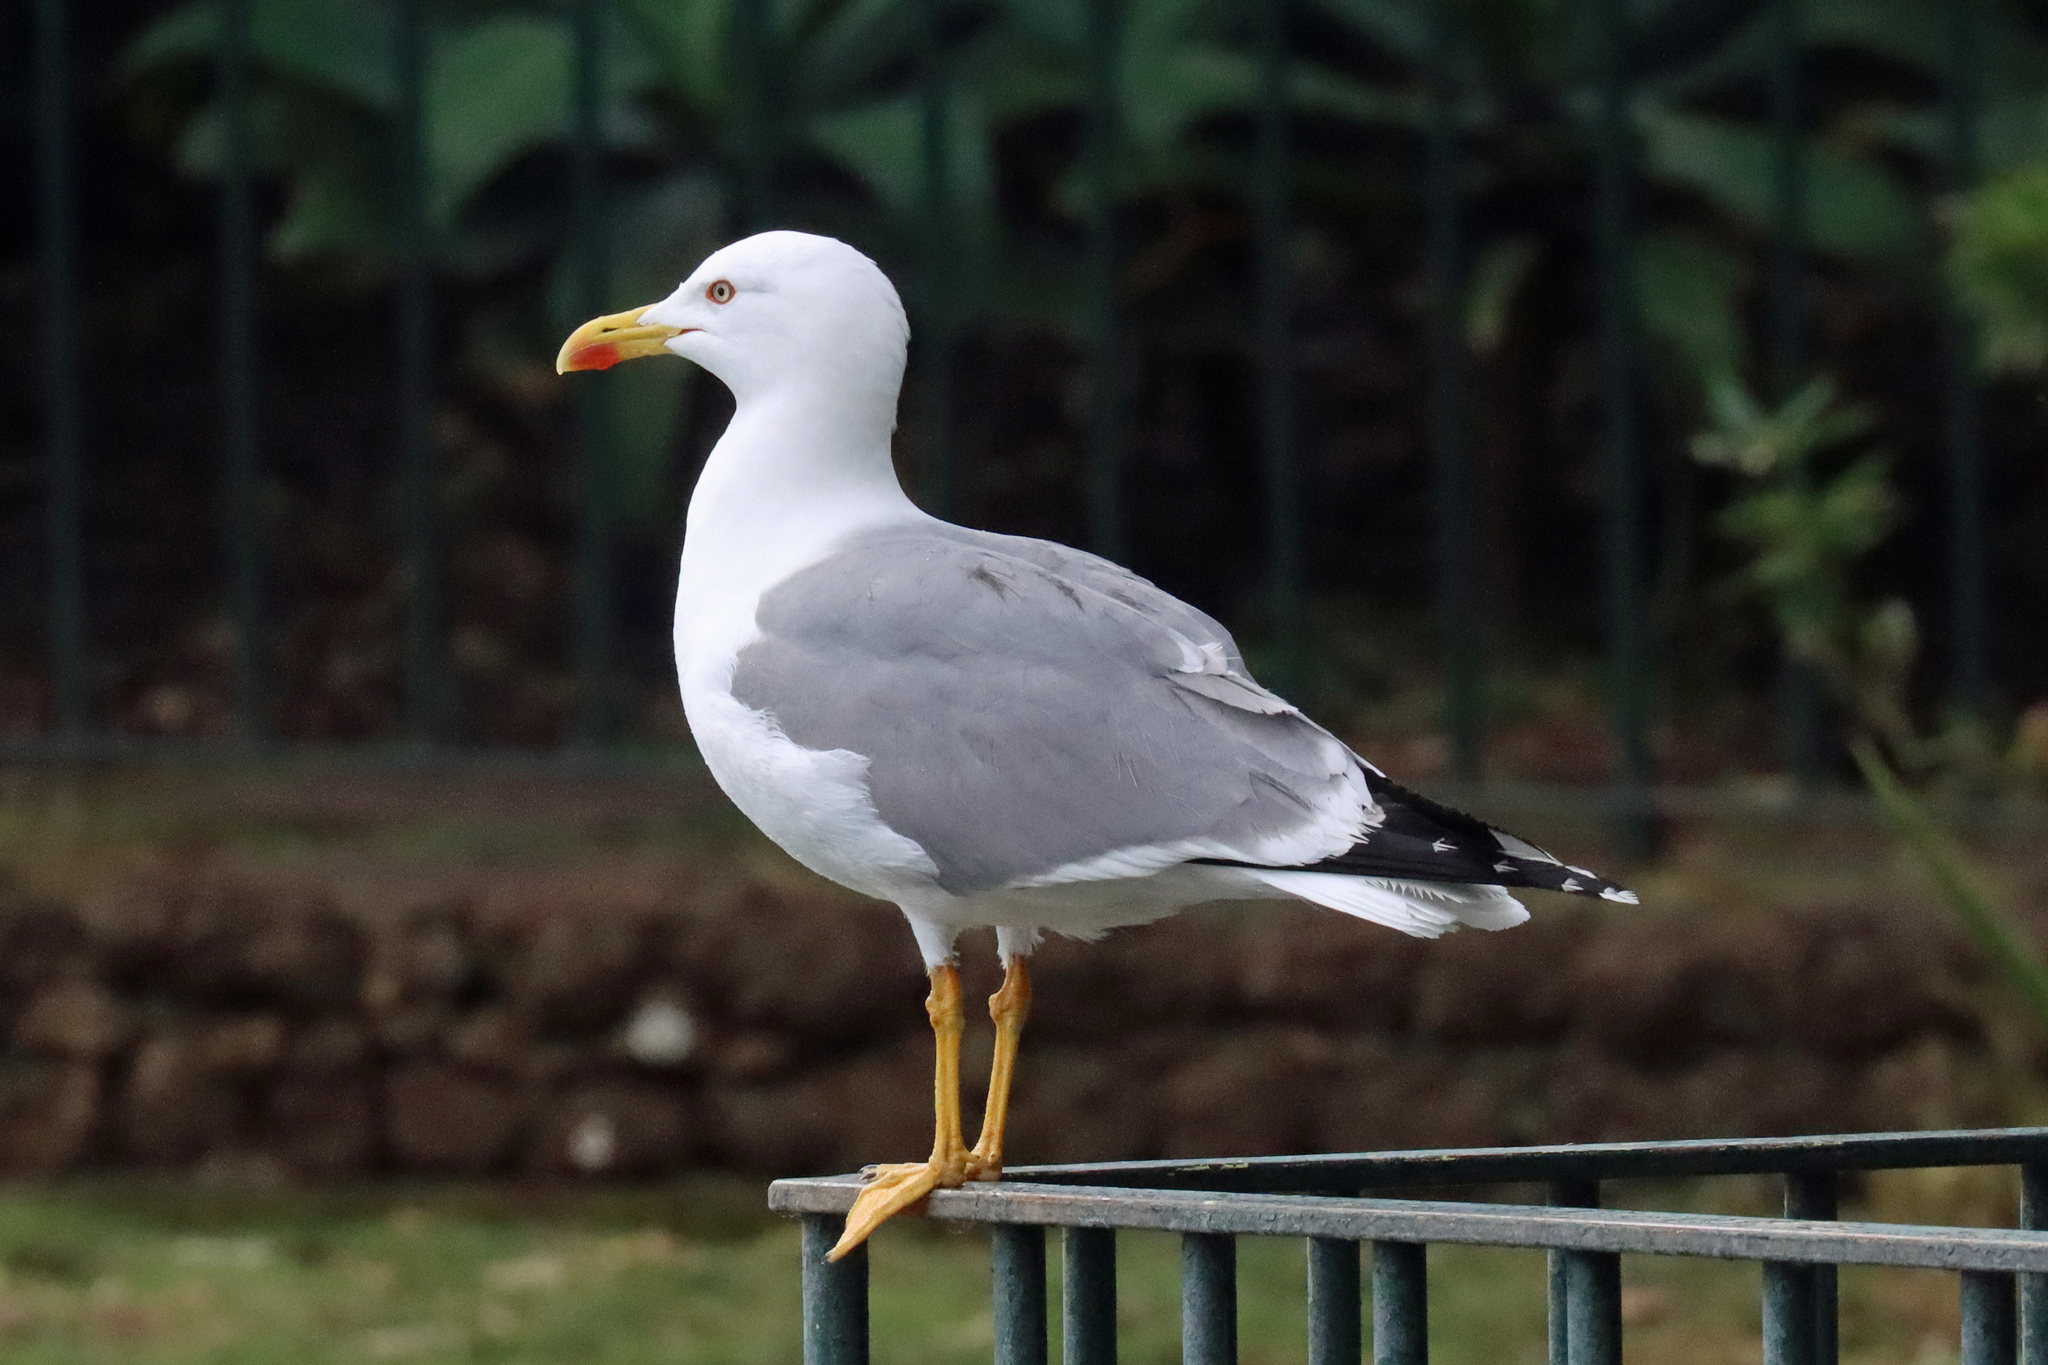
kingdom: Animalia
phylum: Chordata
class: Aves
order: Charadriiformes
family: Laridae
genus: Larus
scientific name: Larus michahellis
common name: Yellow-legged gull
